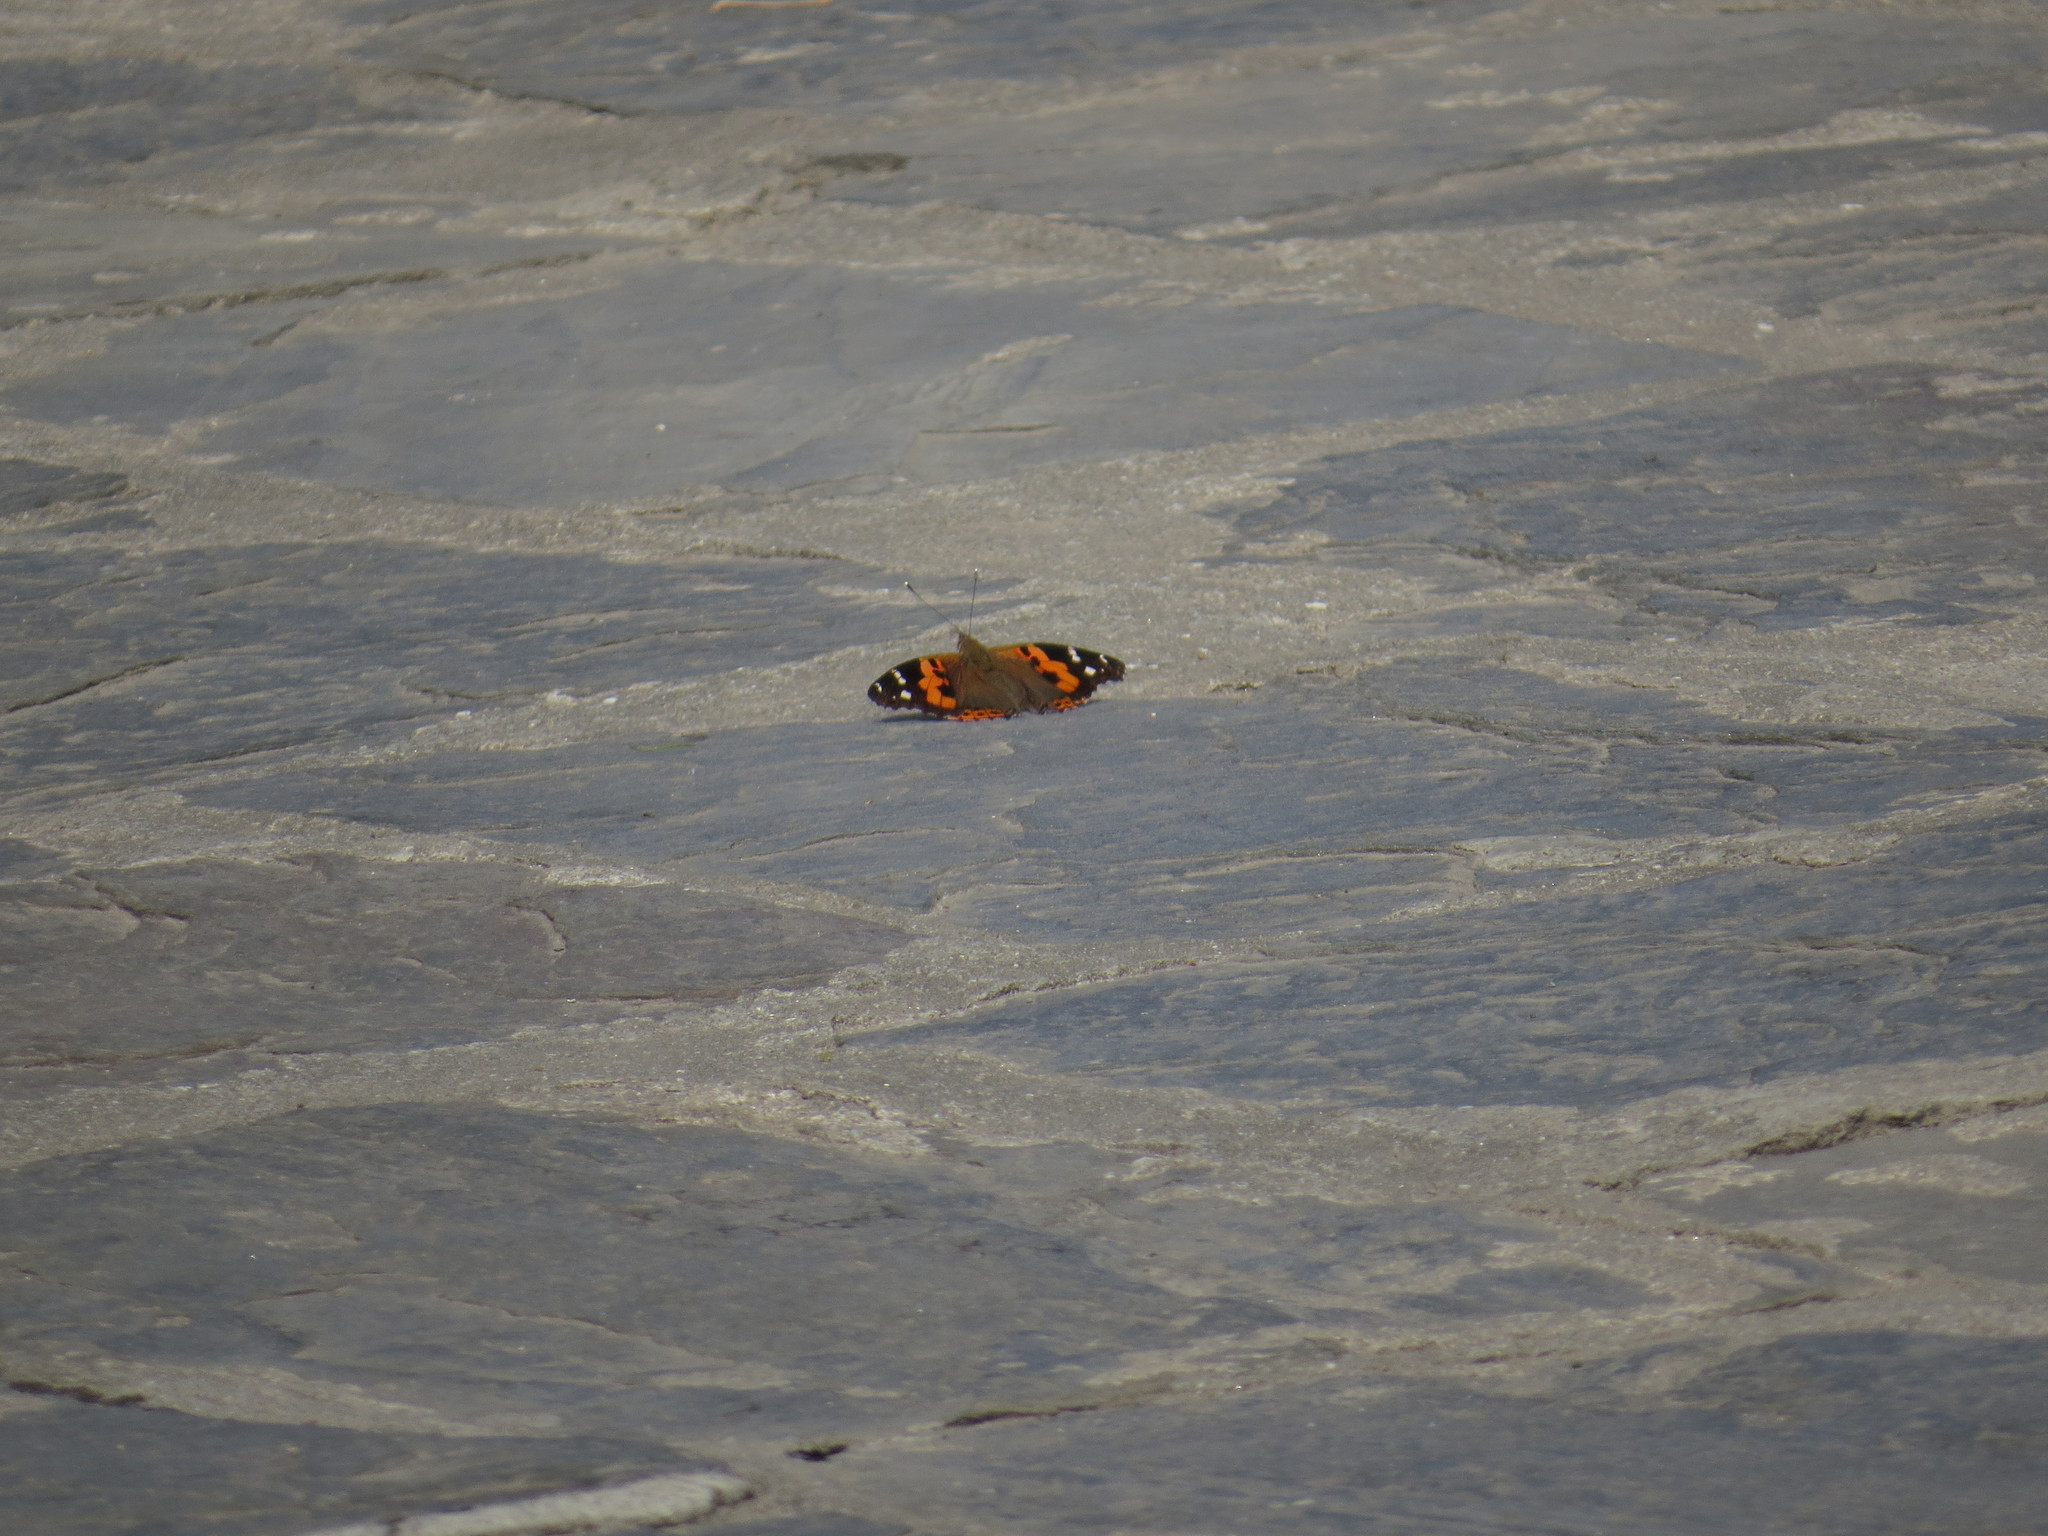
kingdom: Animalia
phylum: Arthropoda
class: Insecta
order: Lepidoptera
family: Nymphalidae
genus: Vanessa
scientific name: Vanessa indica
